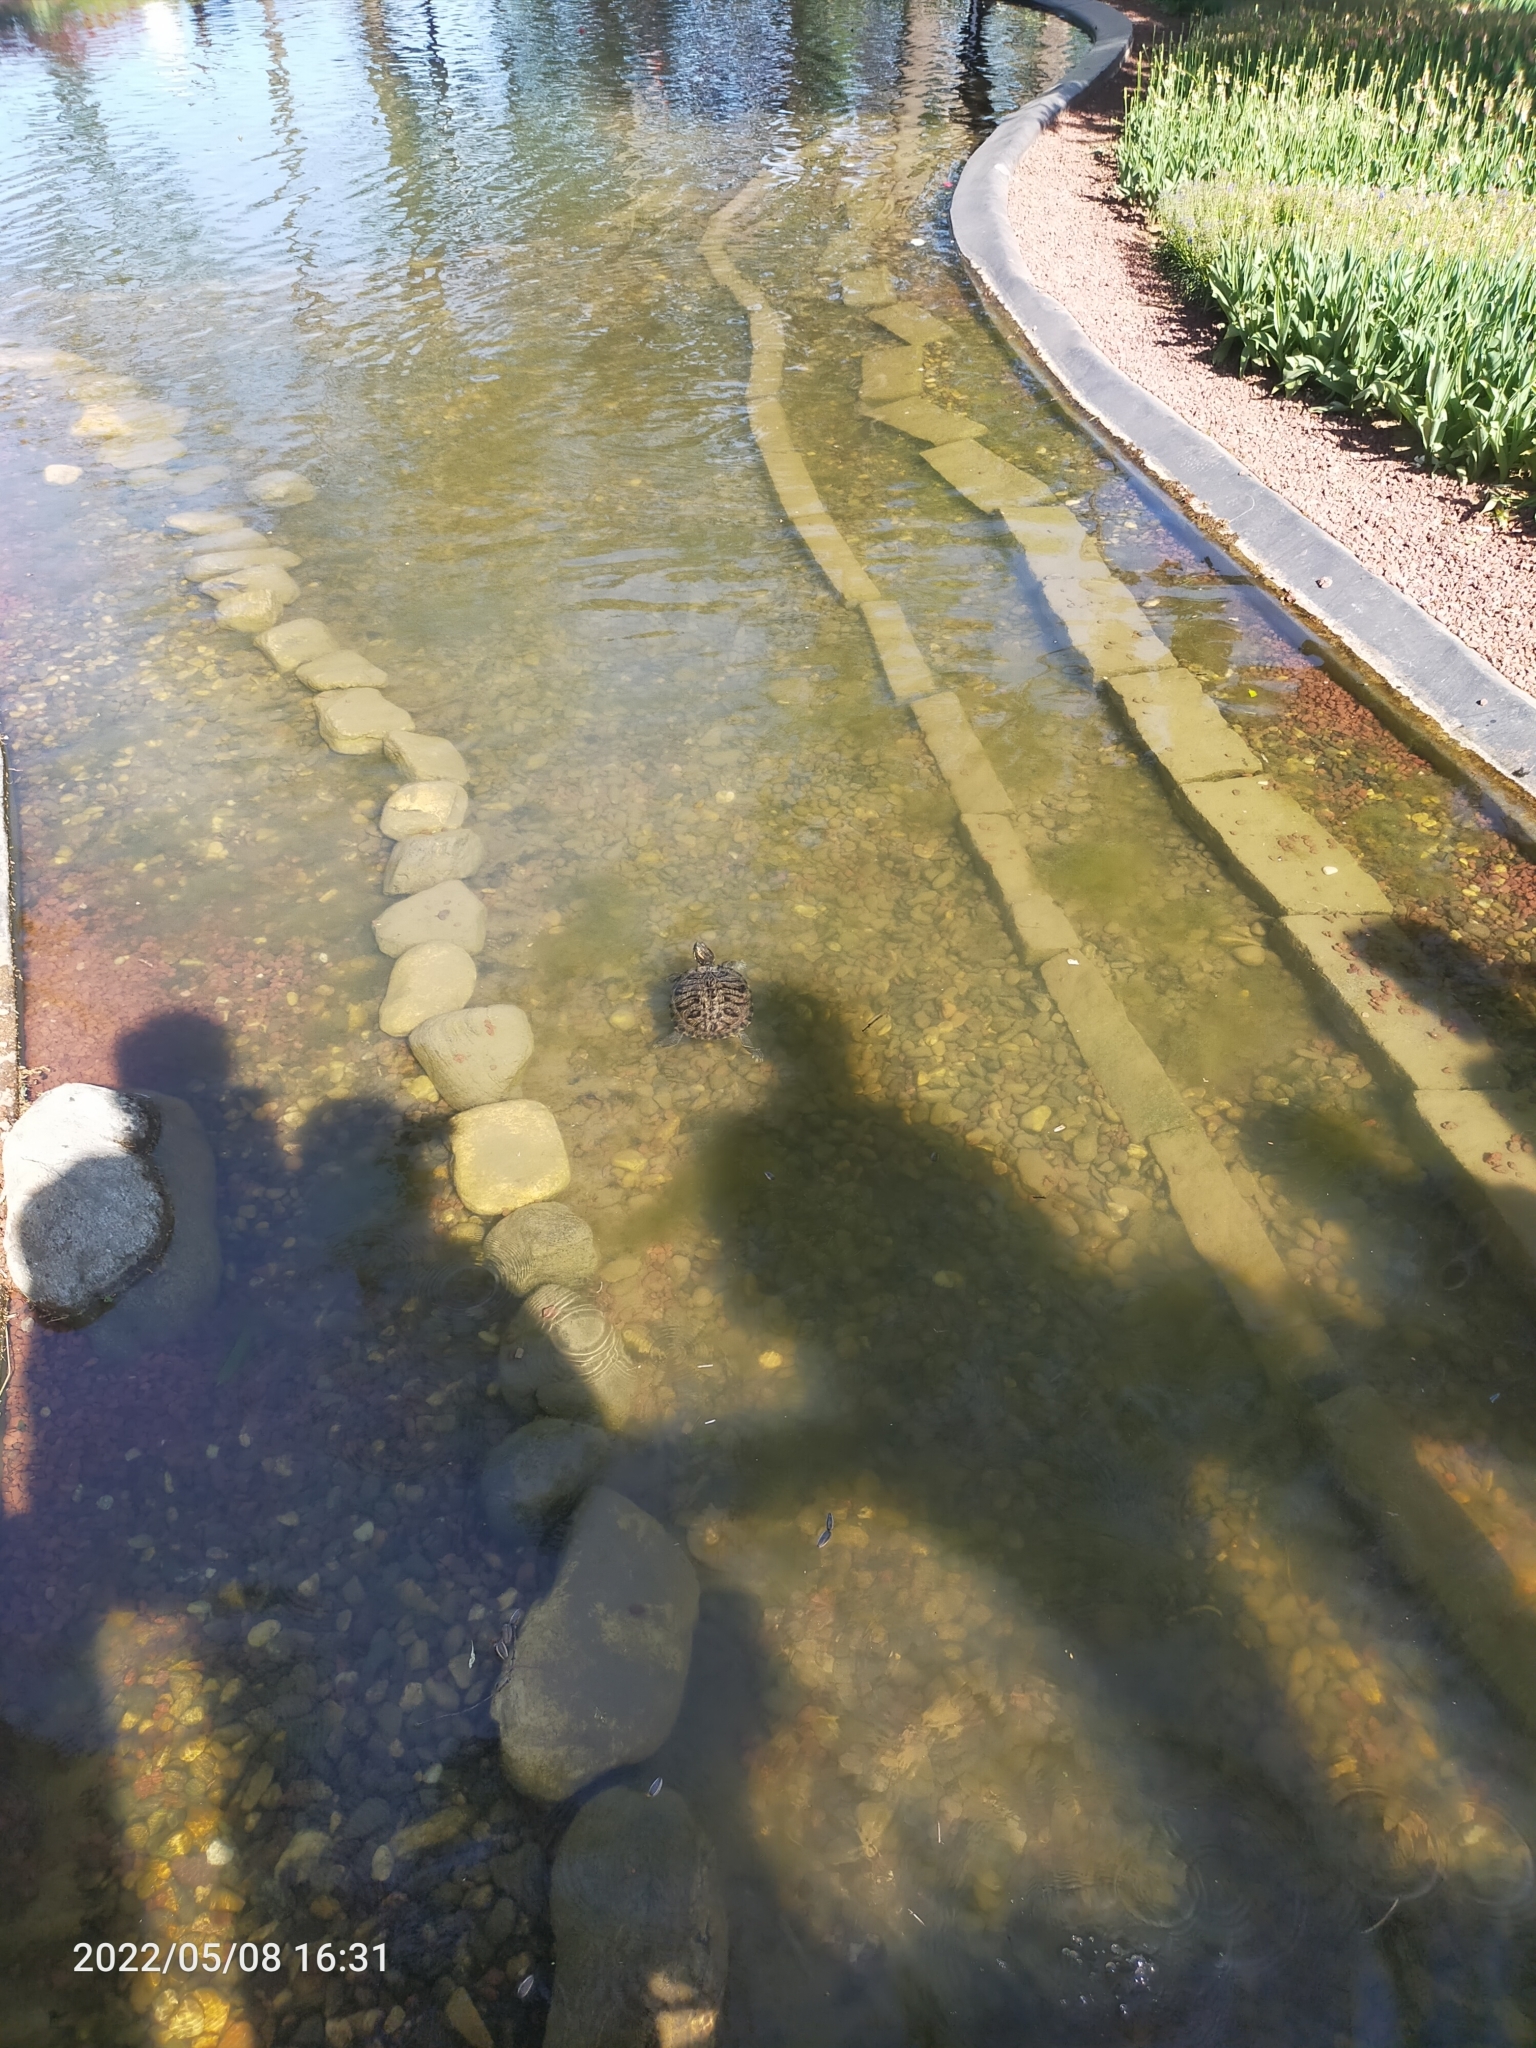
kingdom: Animalia
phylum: Chordata
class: Testudines
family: Emydidae
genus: Trachemys
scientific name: Trachemys scripta
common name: Slider
